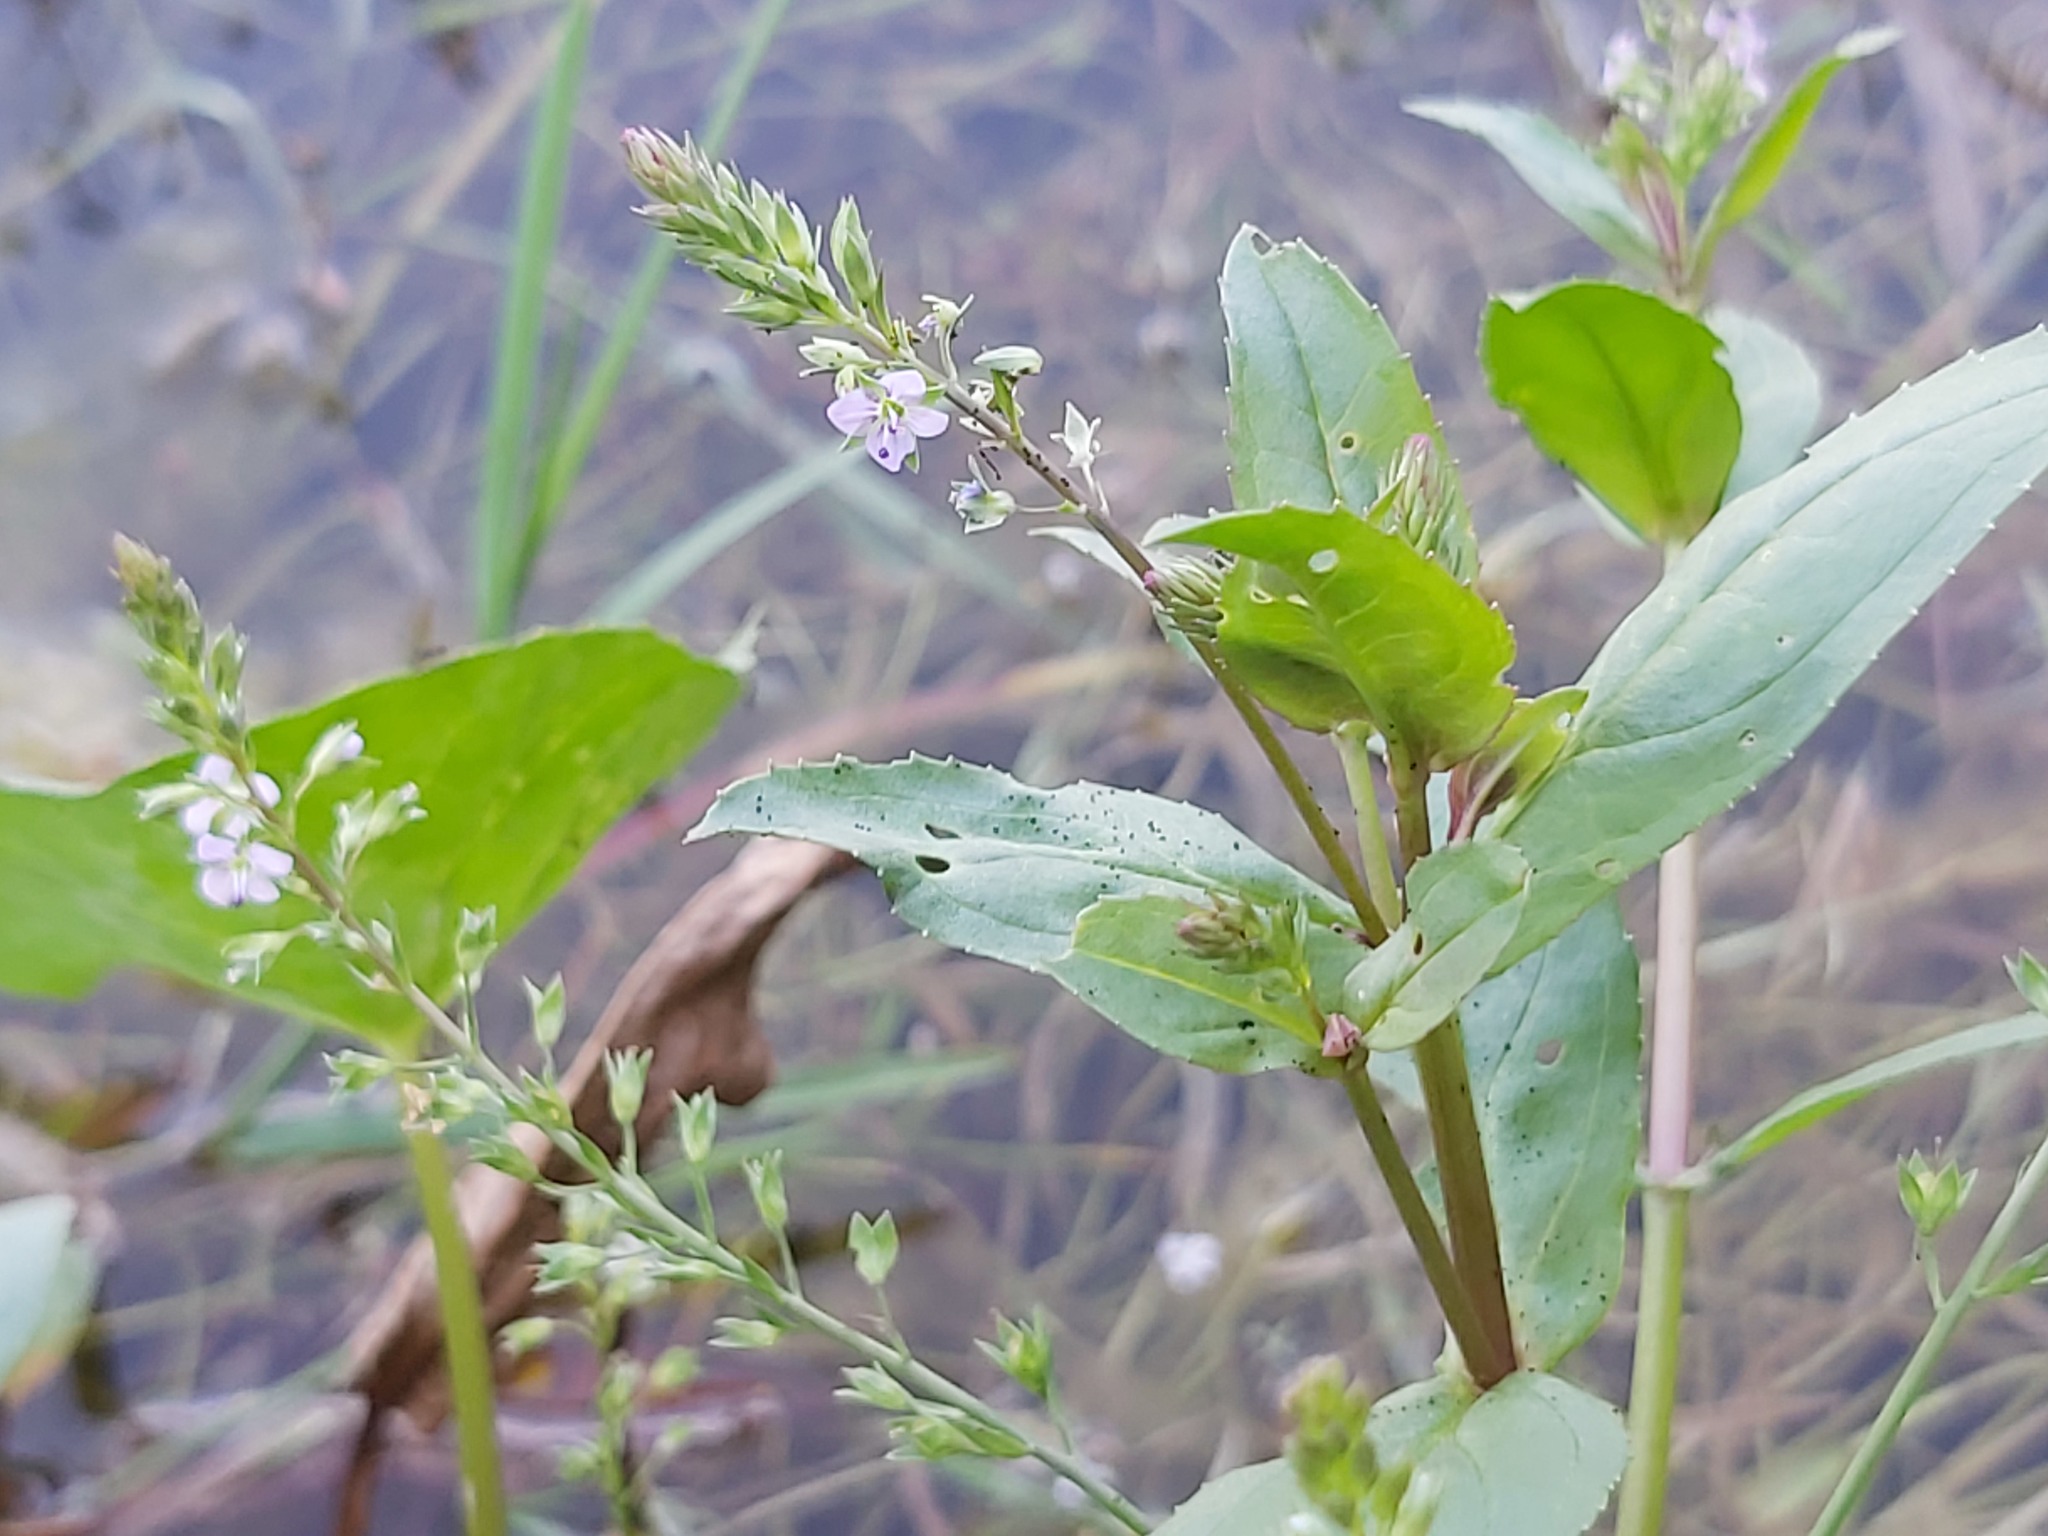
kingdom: Plantae
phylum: Tracheophyta
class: Magnoliopsida
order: Lamiales
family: Plantaginaceae
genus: Veronica
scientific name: Veronica anagallis-aquatica
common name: Water speedwell
